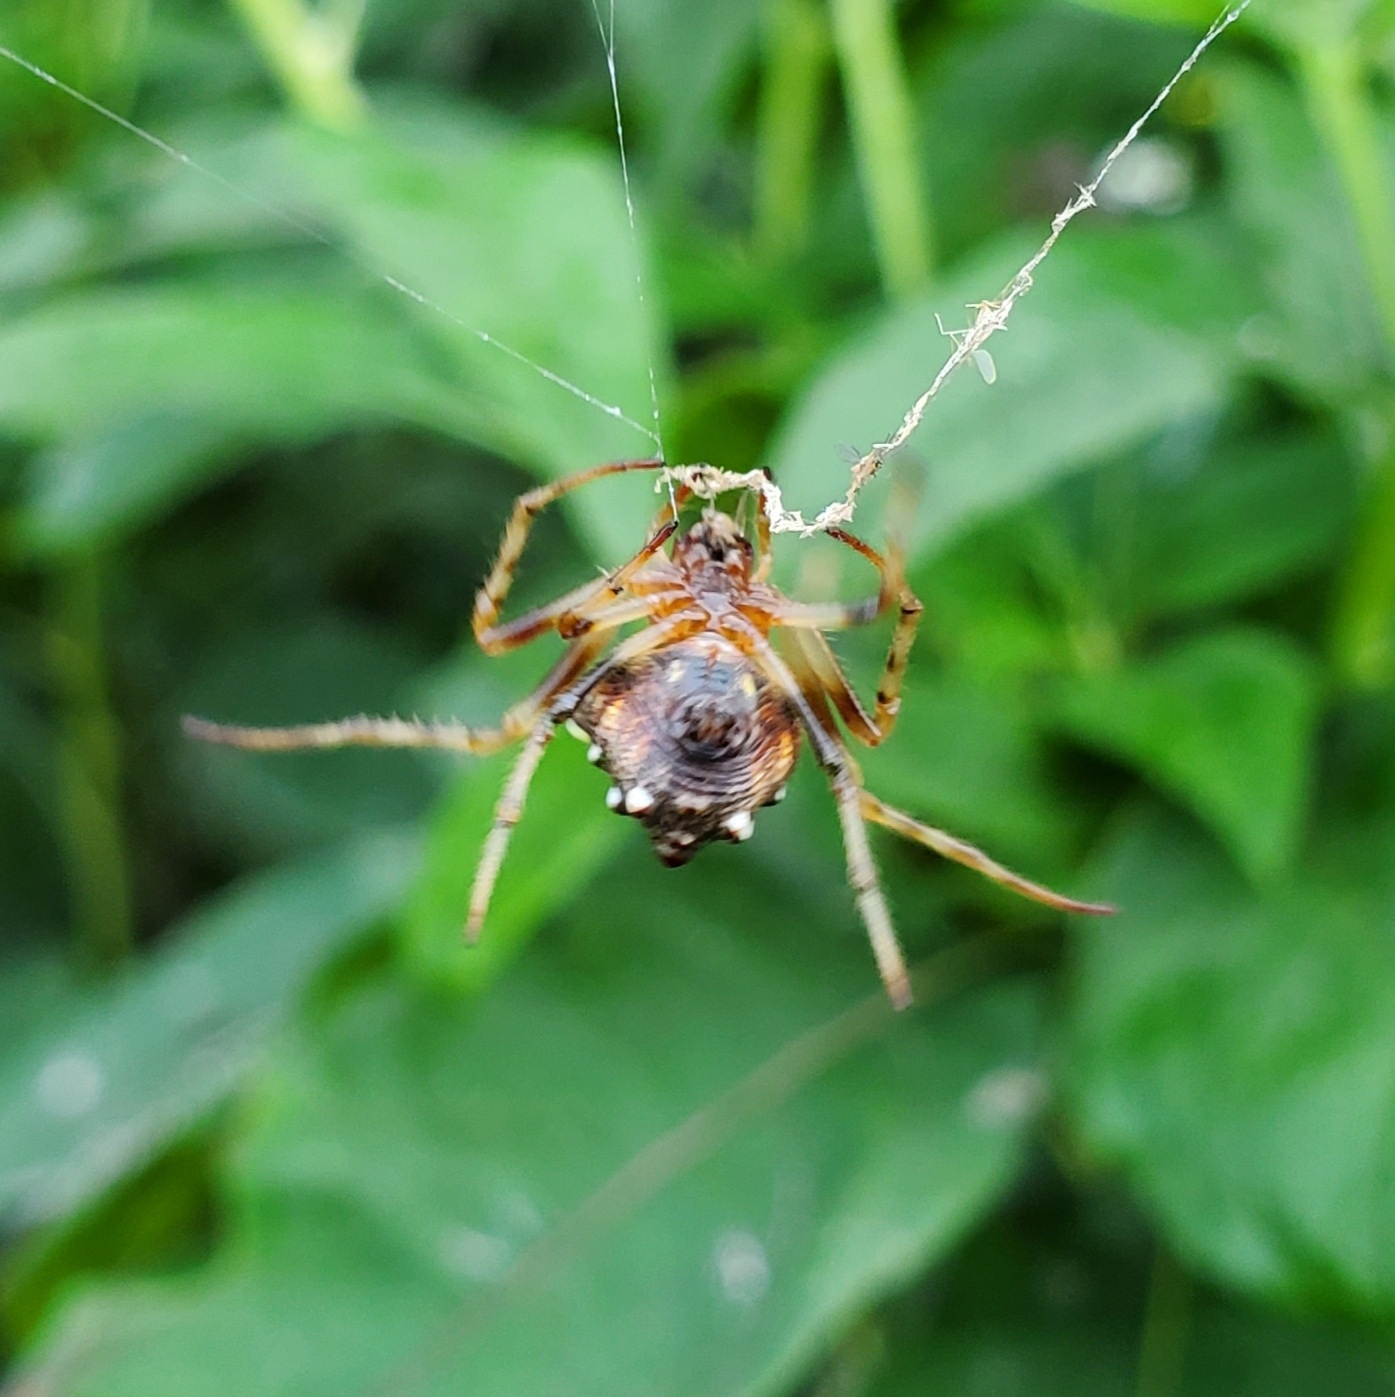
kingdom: Animalia
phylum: Arthropoda
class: Arachnida
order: Araneae
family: Araneidae
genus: Verrucosa
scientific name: Verrucosa arenata
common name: Orb weavers
